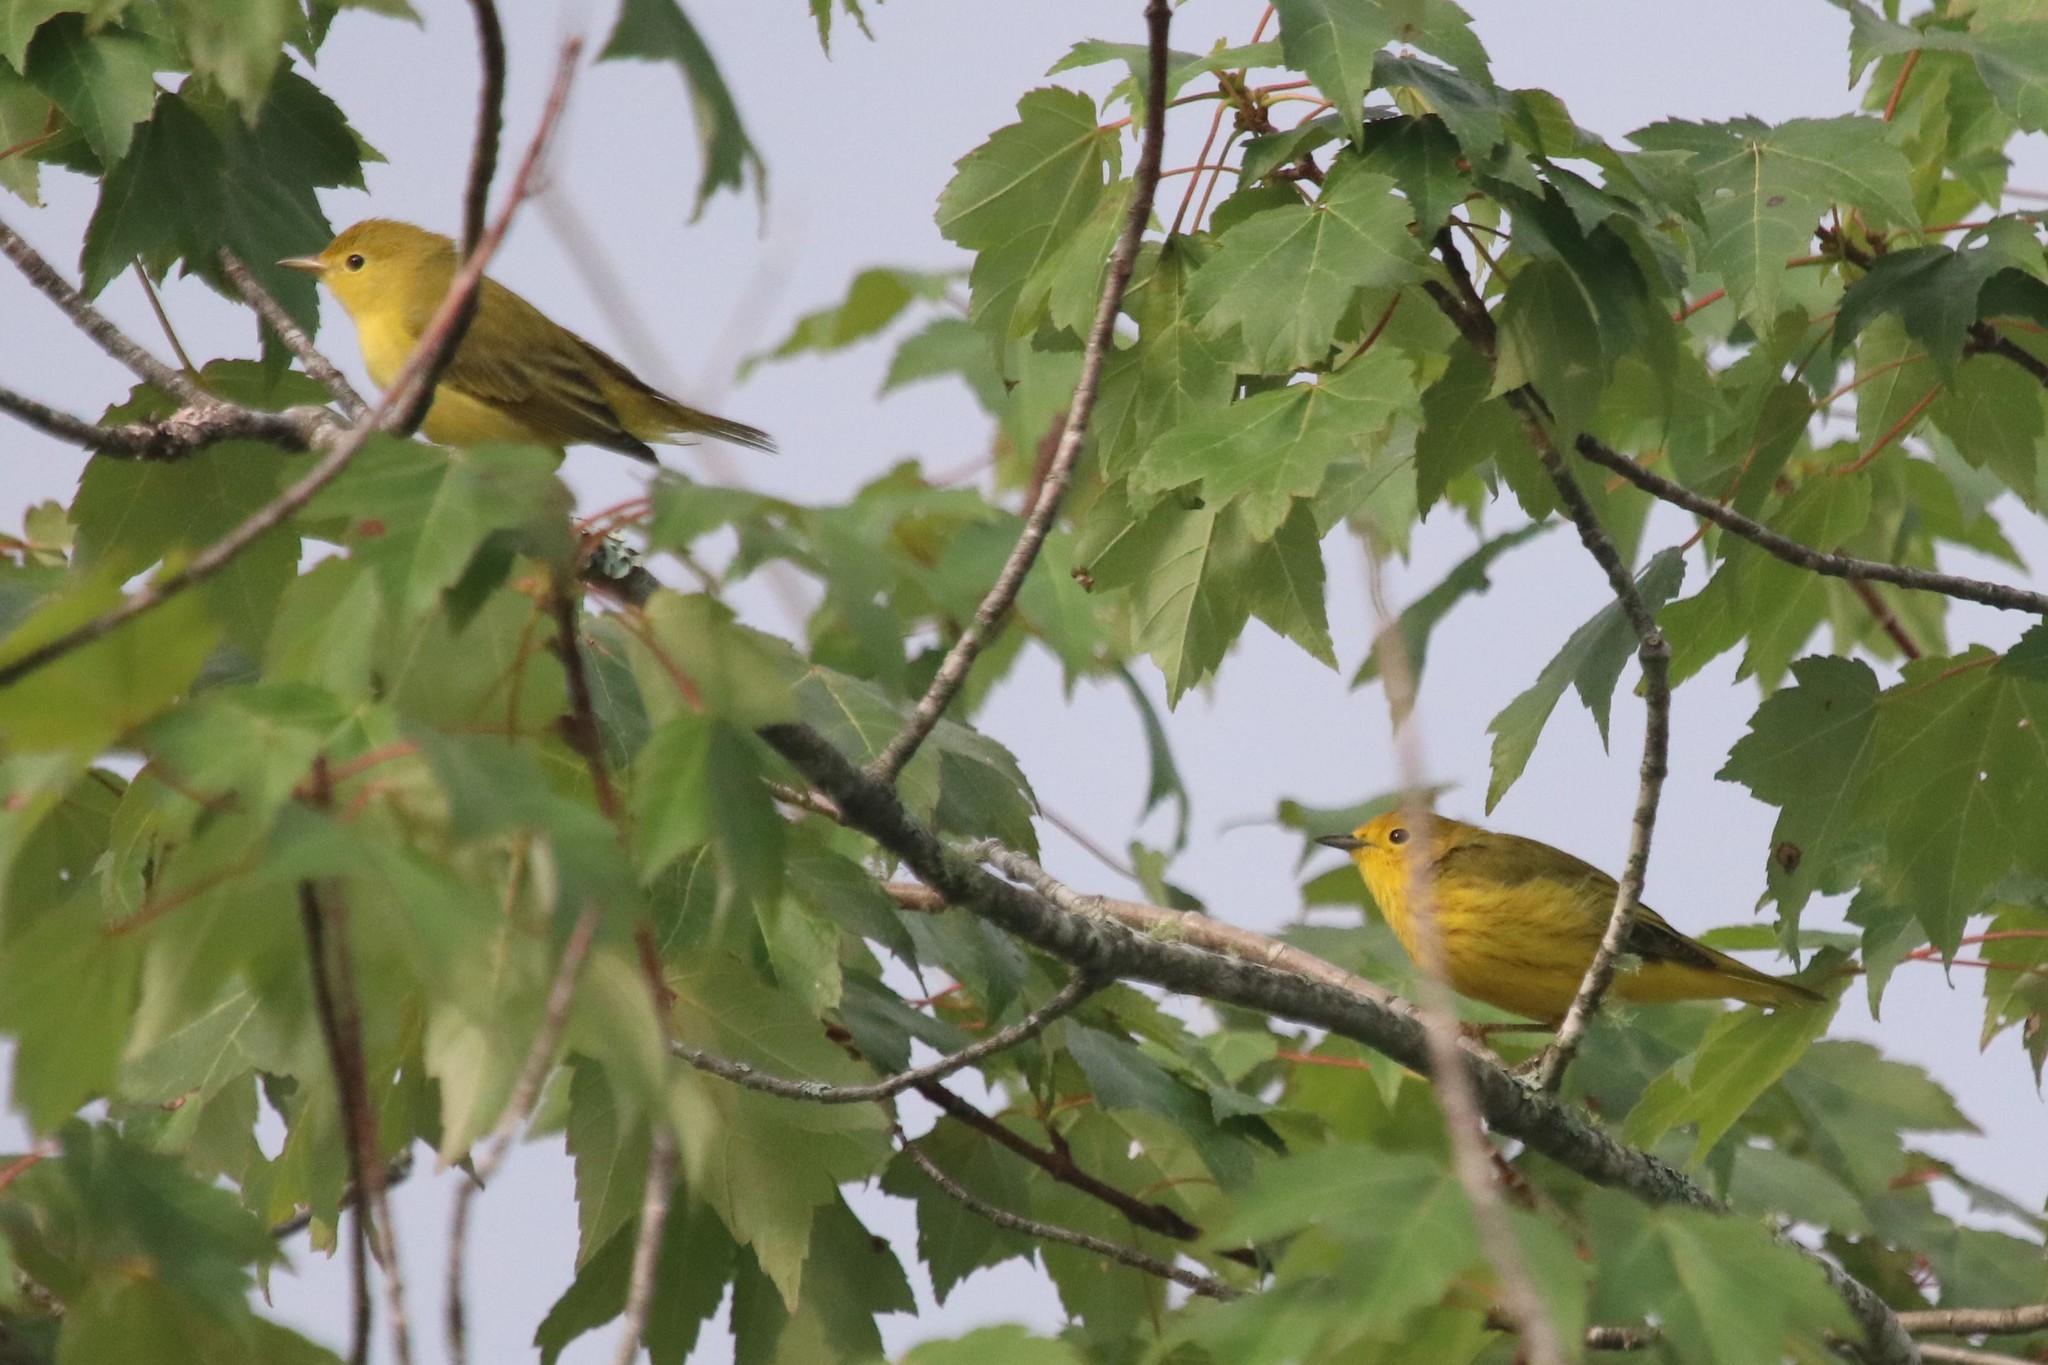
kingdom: Animalia
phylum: Chordata
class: Aves
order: Passeriformes
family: Parulidae
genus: Setophaga
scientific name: Setophaga petechia
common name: Yellow warbler
